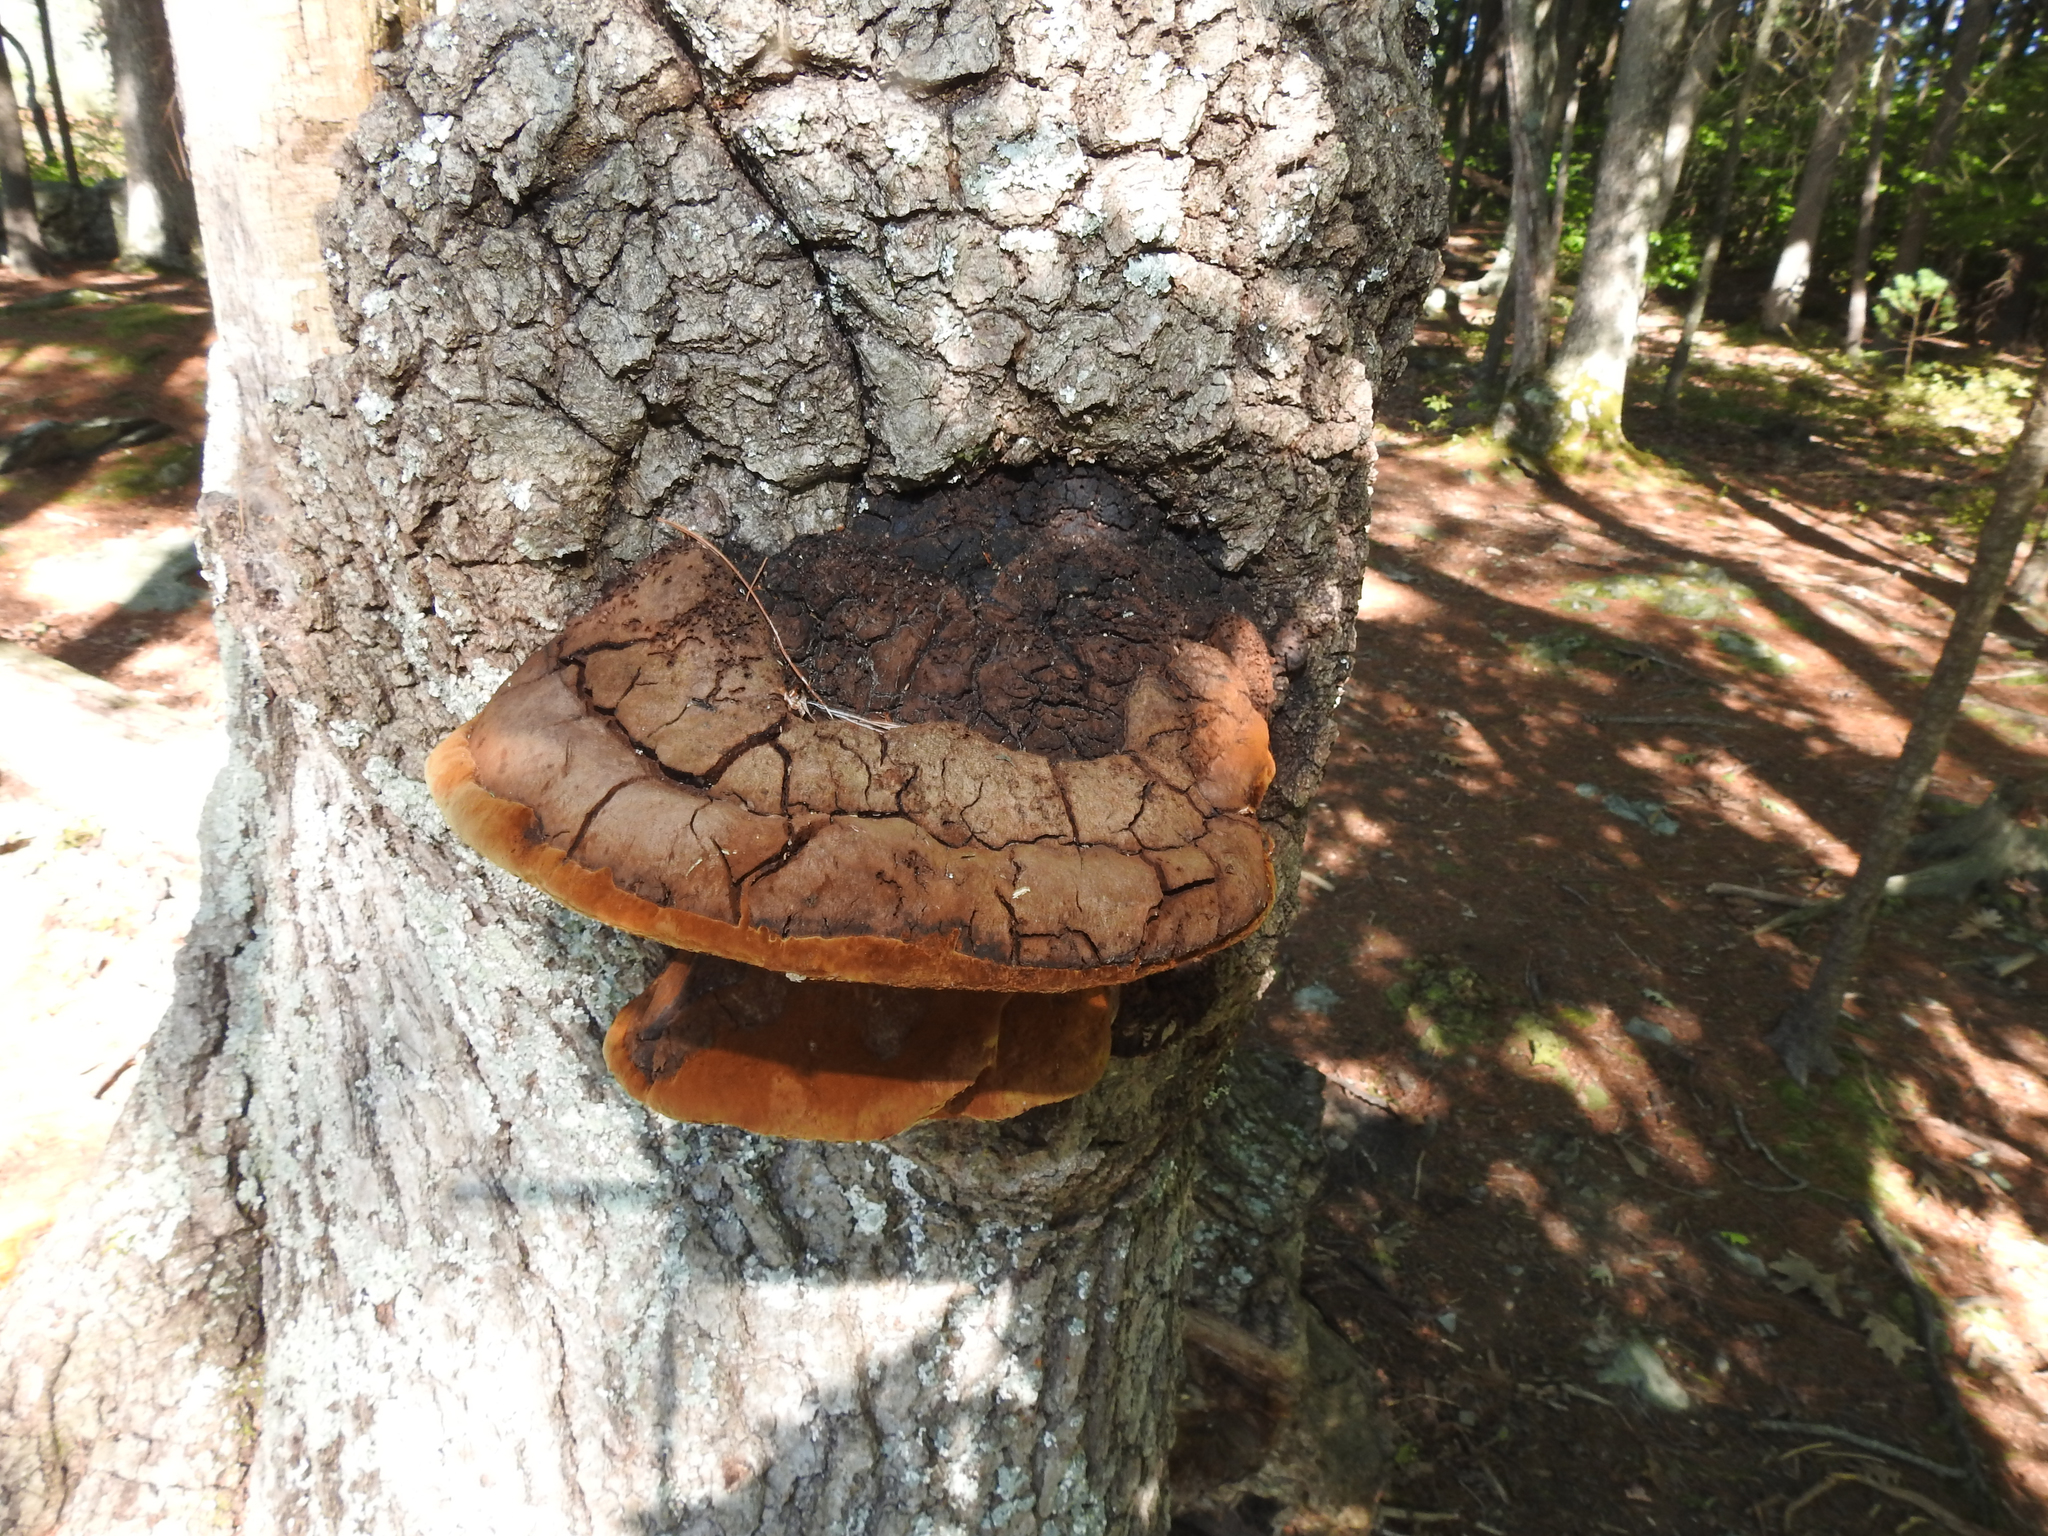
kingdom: Fungi
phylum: Basidiomycota
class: Agaricomycetes
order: Hymenochaetales
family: Hymenochaetaceae
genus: Inonotus
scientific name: Inonotus hispidus
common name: Shaggy bracket
